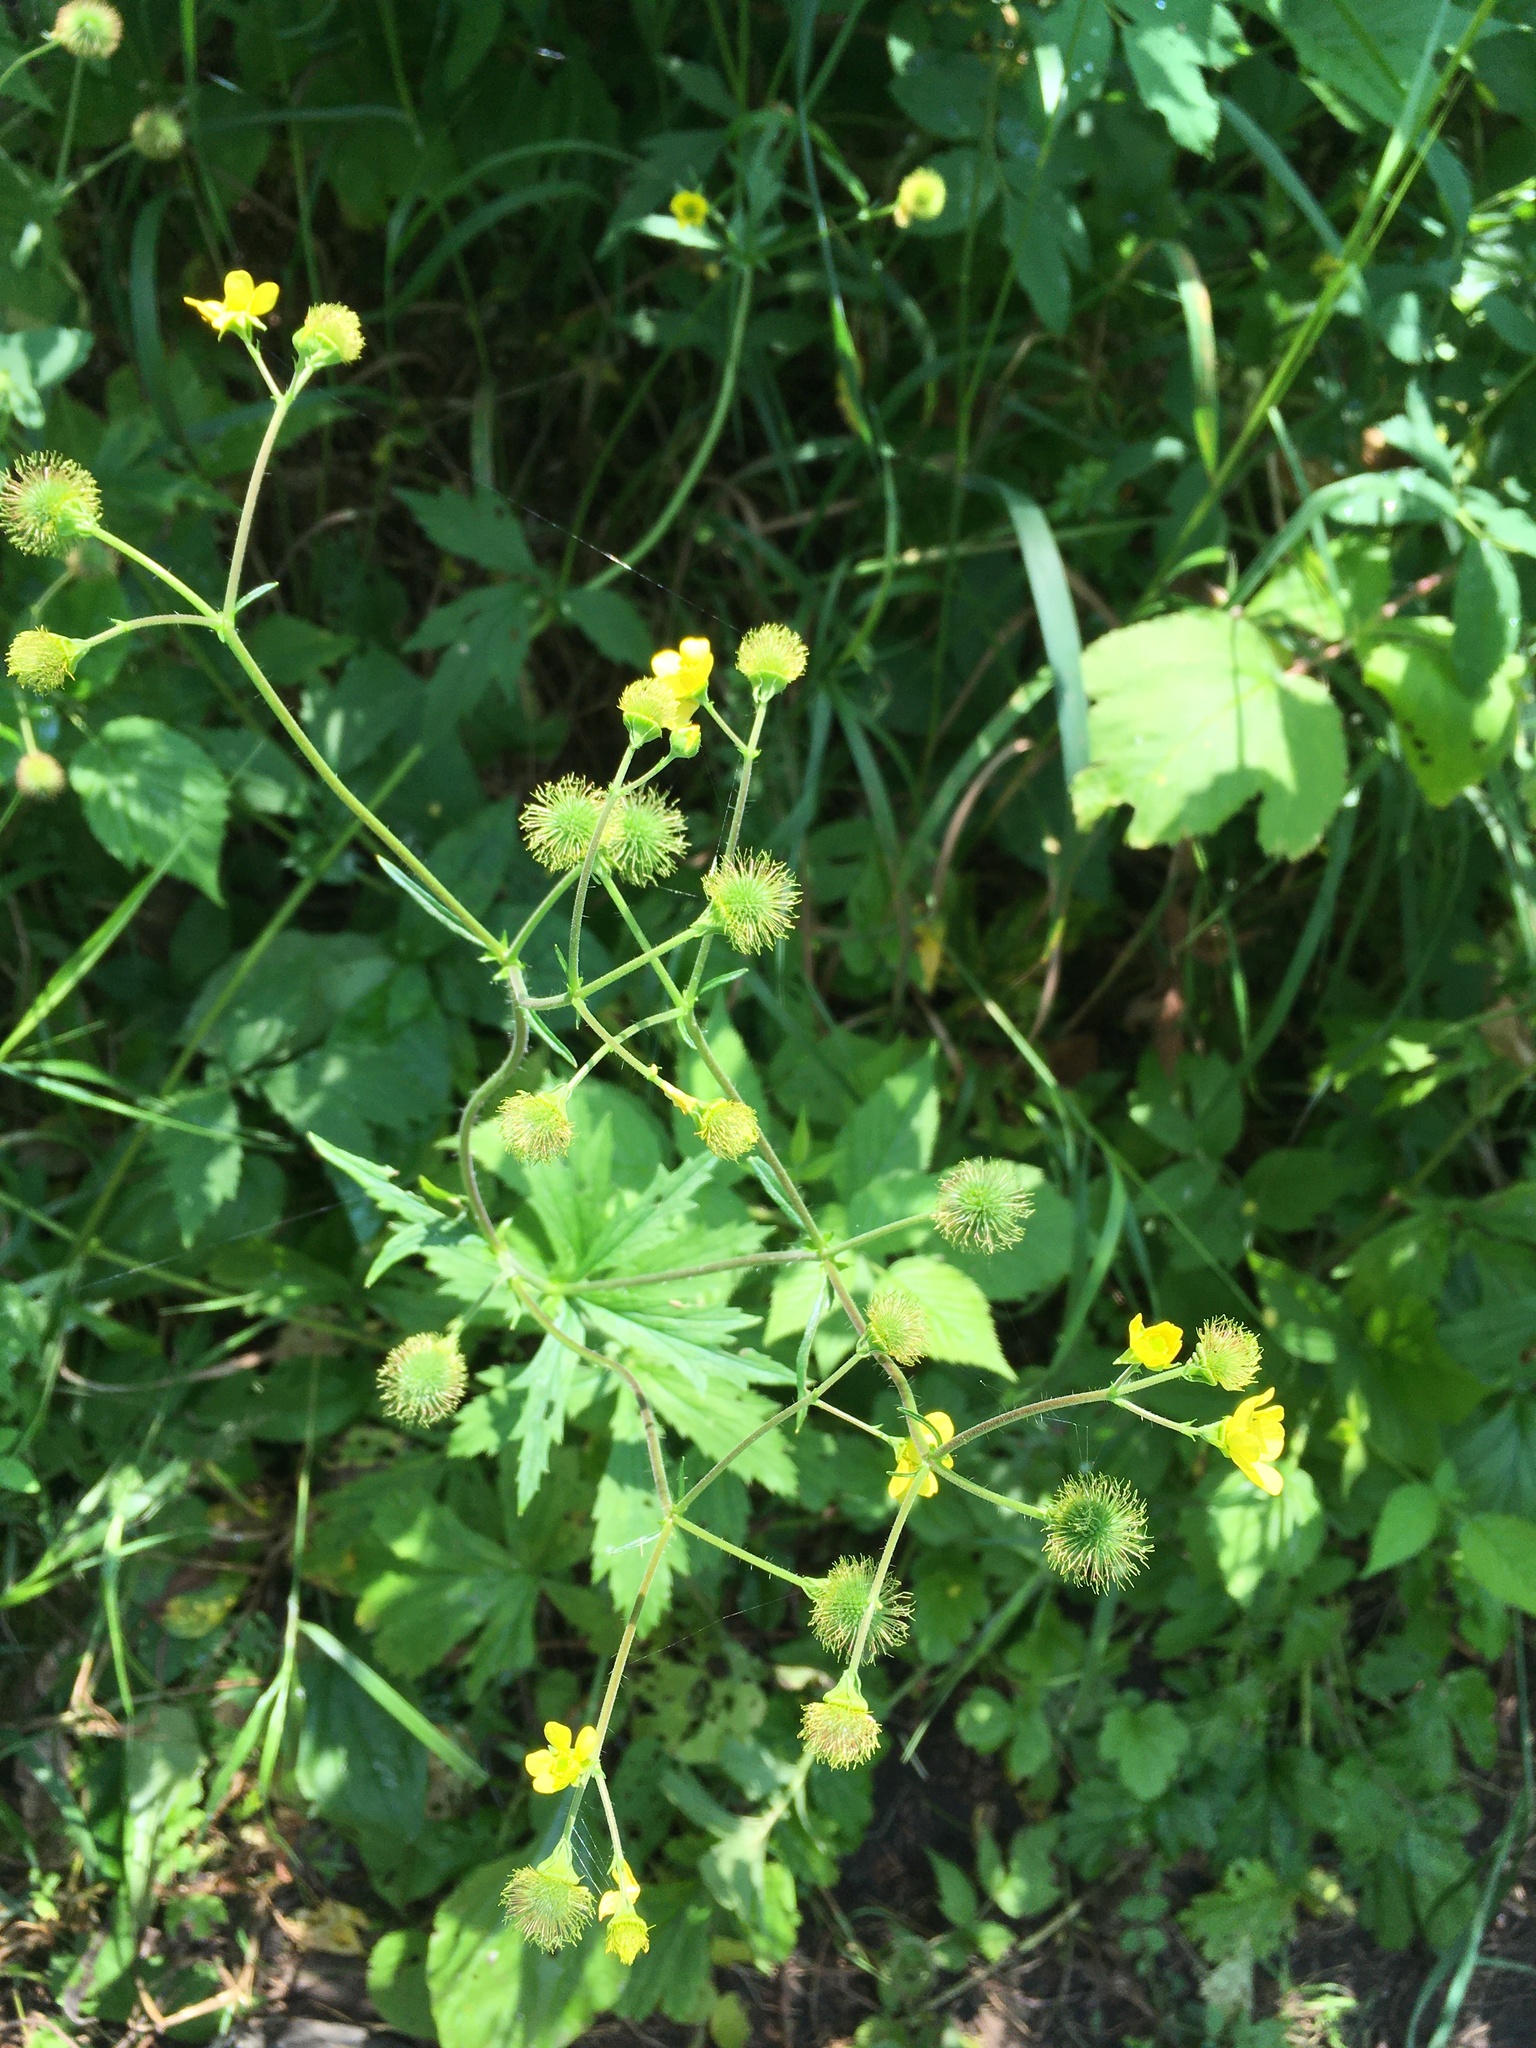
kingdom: Plantae
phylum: Tracheophyta
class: Magnoliopsida
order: Rosales
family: Rosaceae
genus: Geum
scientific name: Geum macrophyllum
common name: Large-leaved avens
